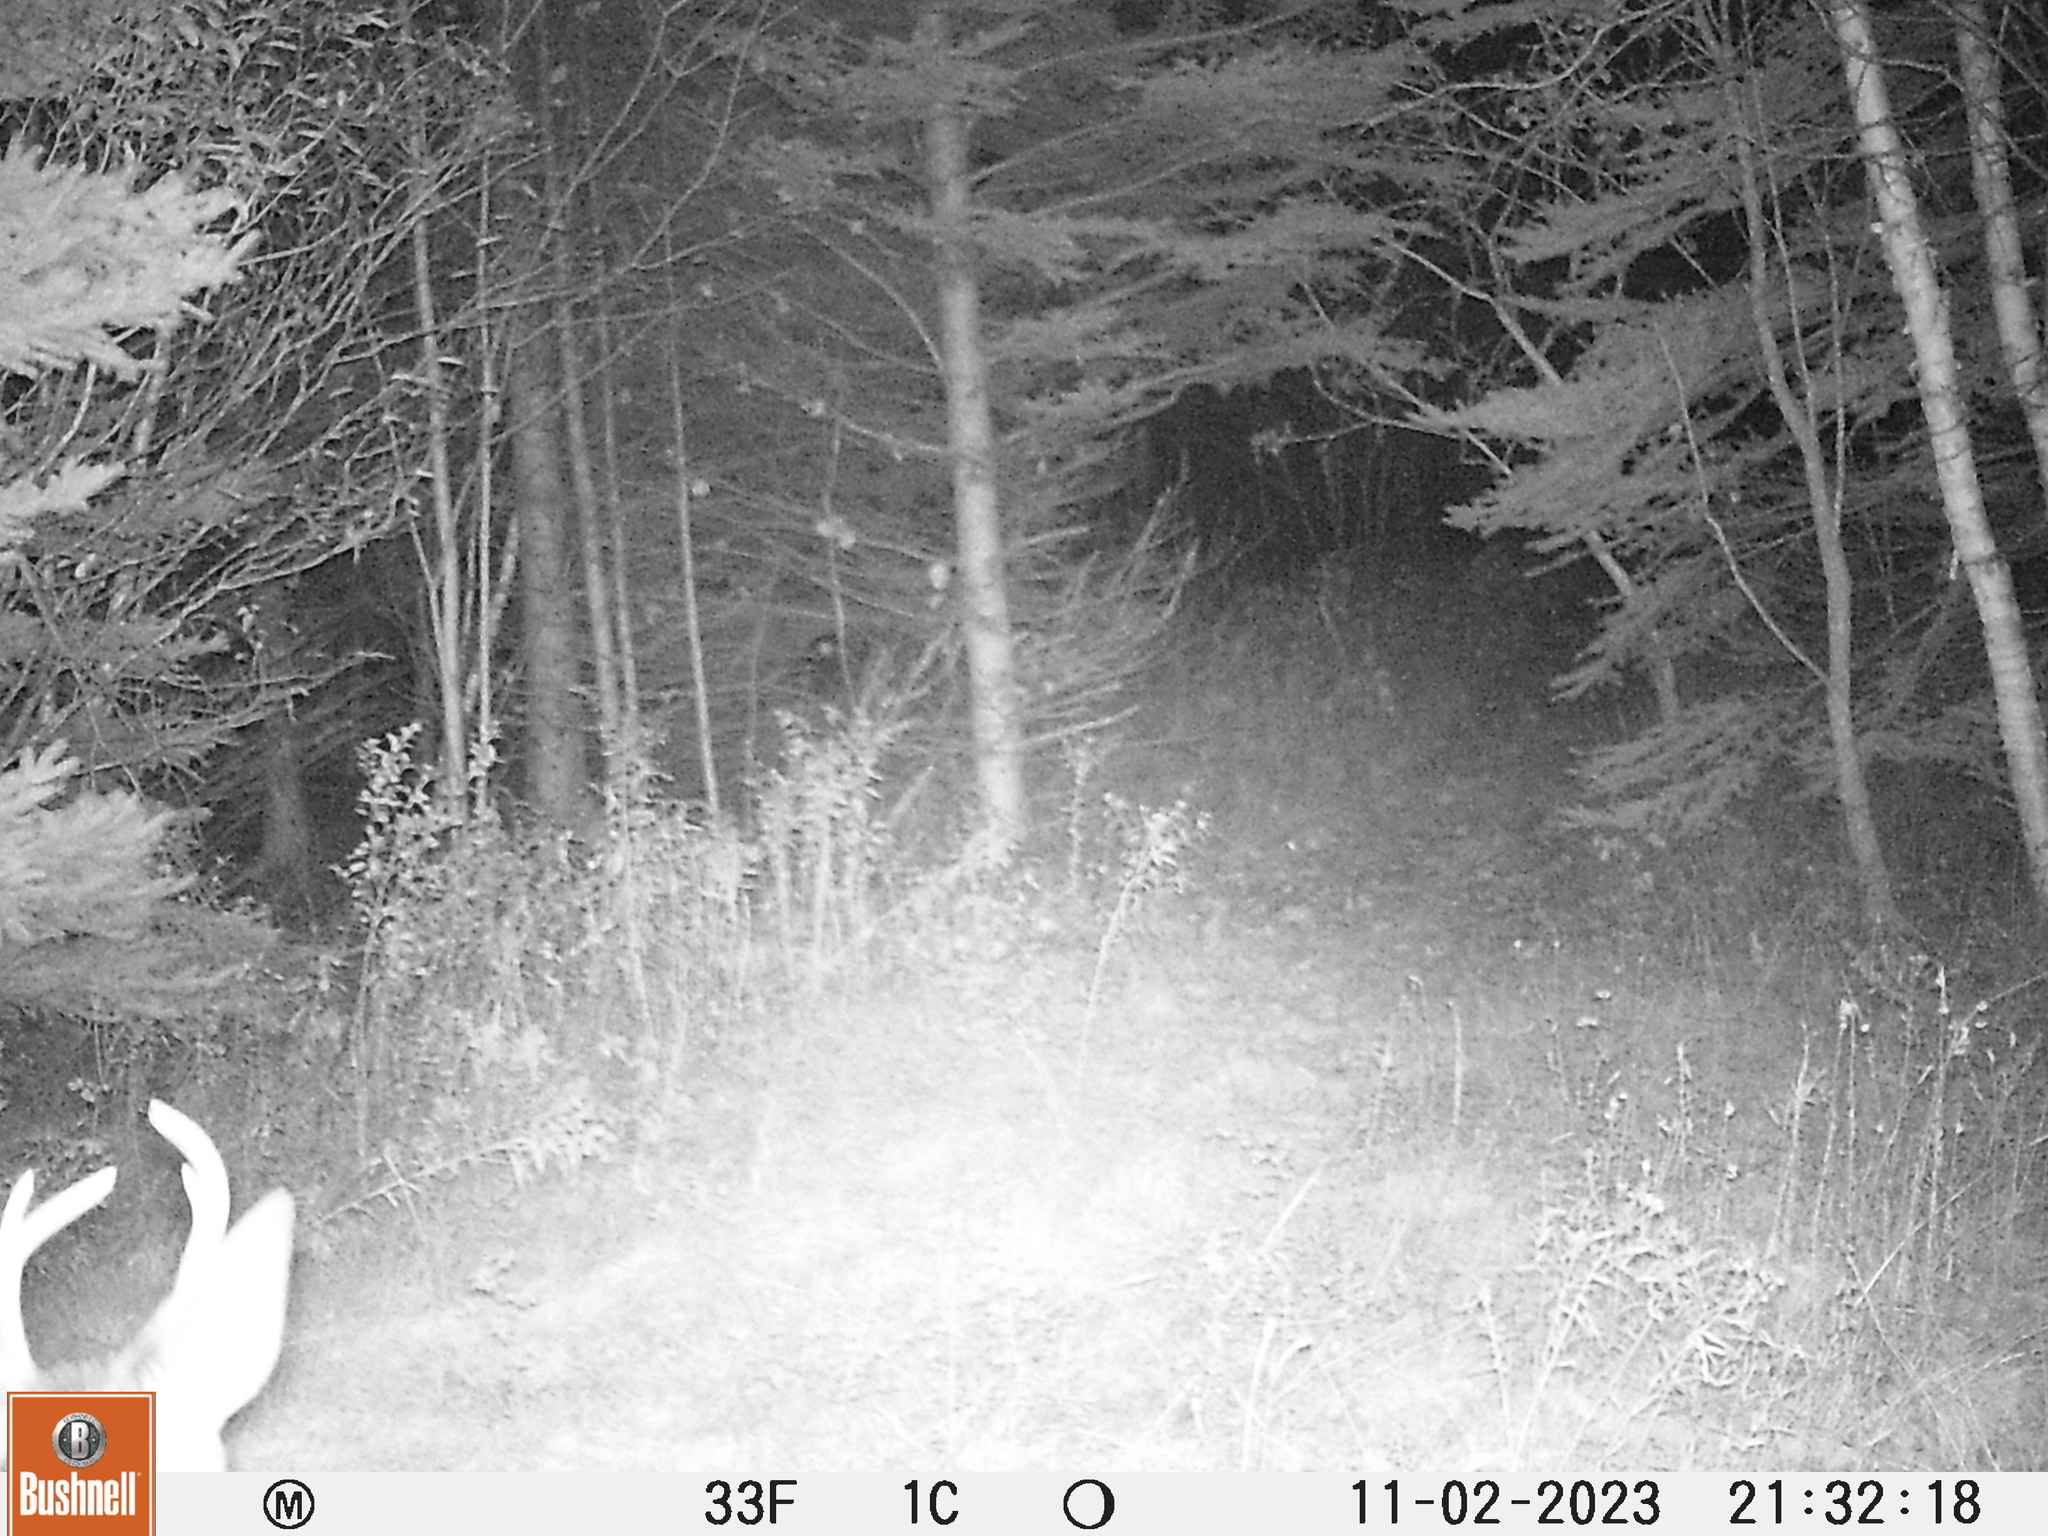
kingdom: Animalia
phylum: Chordata
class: Mammalia
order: Artiodactyla
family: Cervidae
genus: Odocoileus
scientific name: Odocoileus virginianus
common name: White-tailed deer
